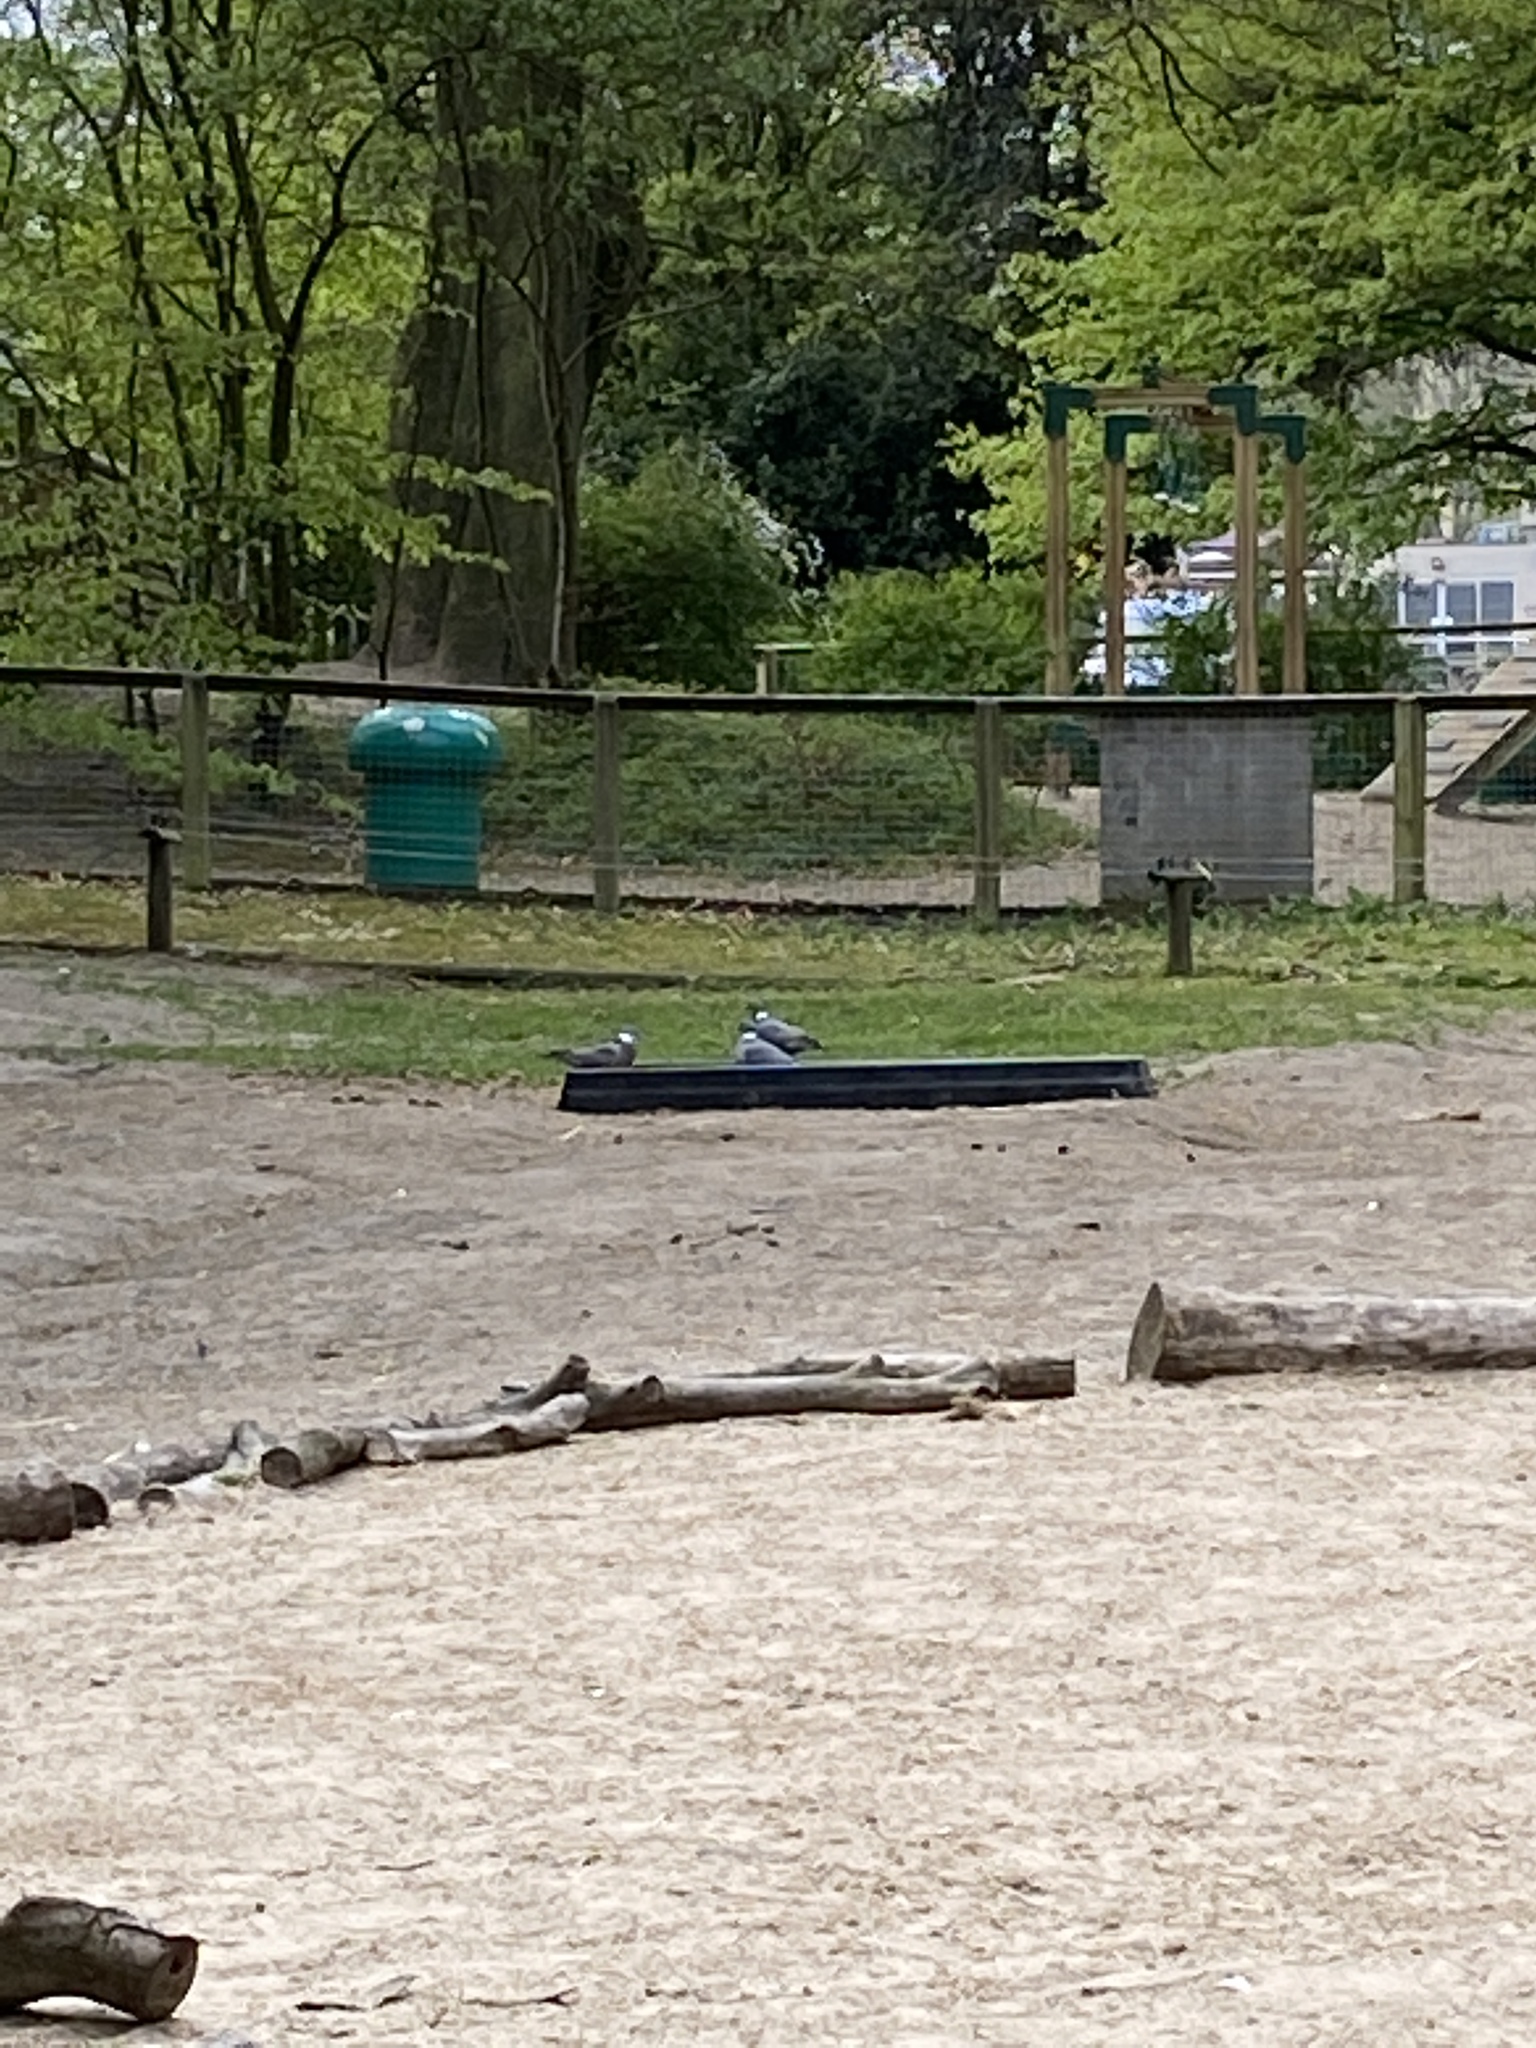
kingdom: Animalia
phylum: Chordata
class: Aves
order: Columbiformes
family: Columbidae
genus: Columba
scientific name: Columba palumbus
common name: Common wood pigeon
